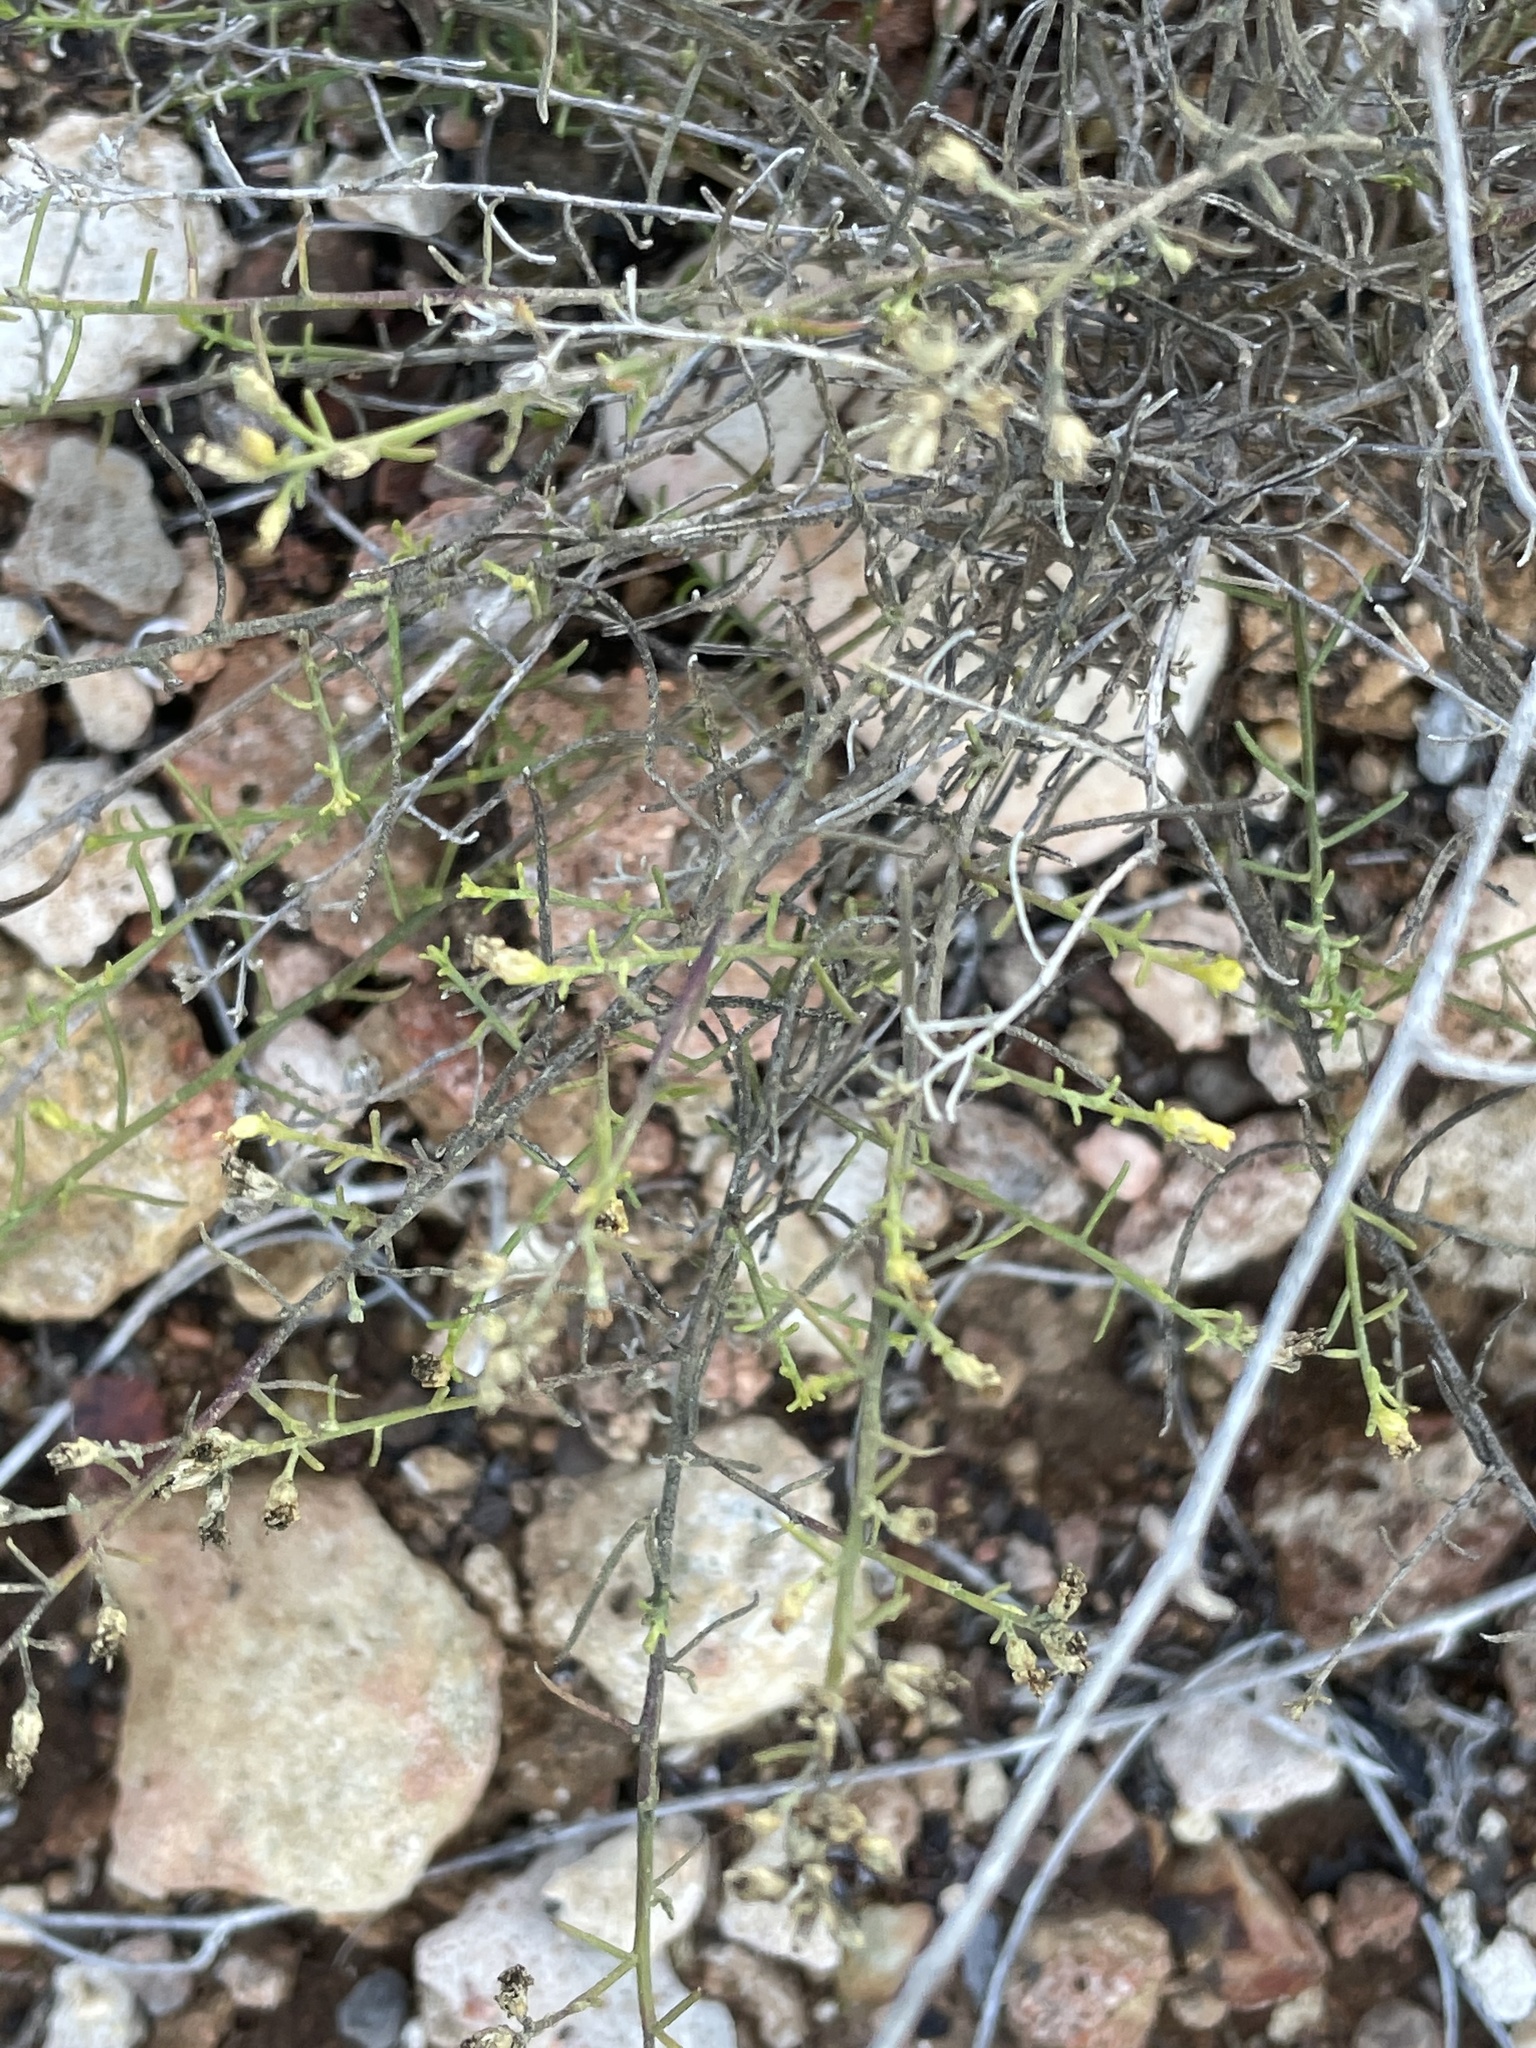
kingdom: Plantae
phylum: Tracheophyta
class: Magnoliopsida
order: Asterales
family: Asteraceae
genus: Gutierrezia
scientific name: Gutierrezia sarothrae
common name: Broom snakeweed
